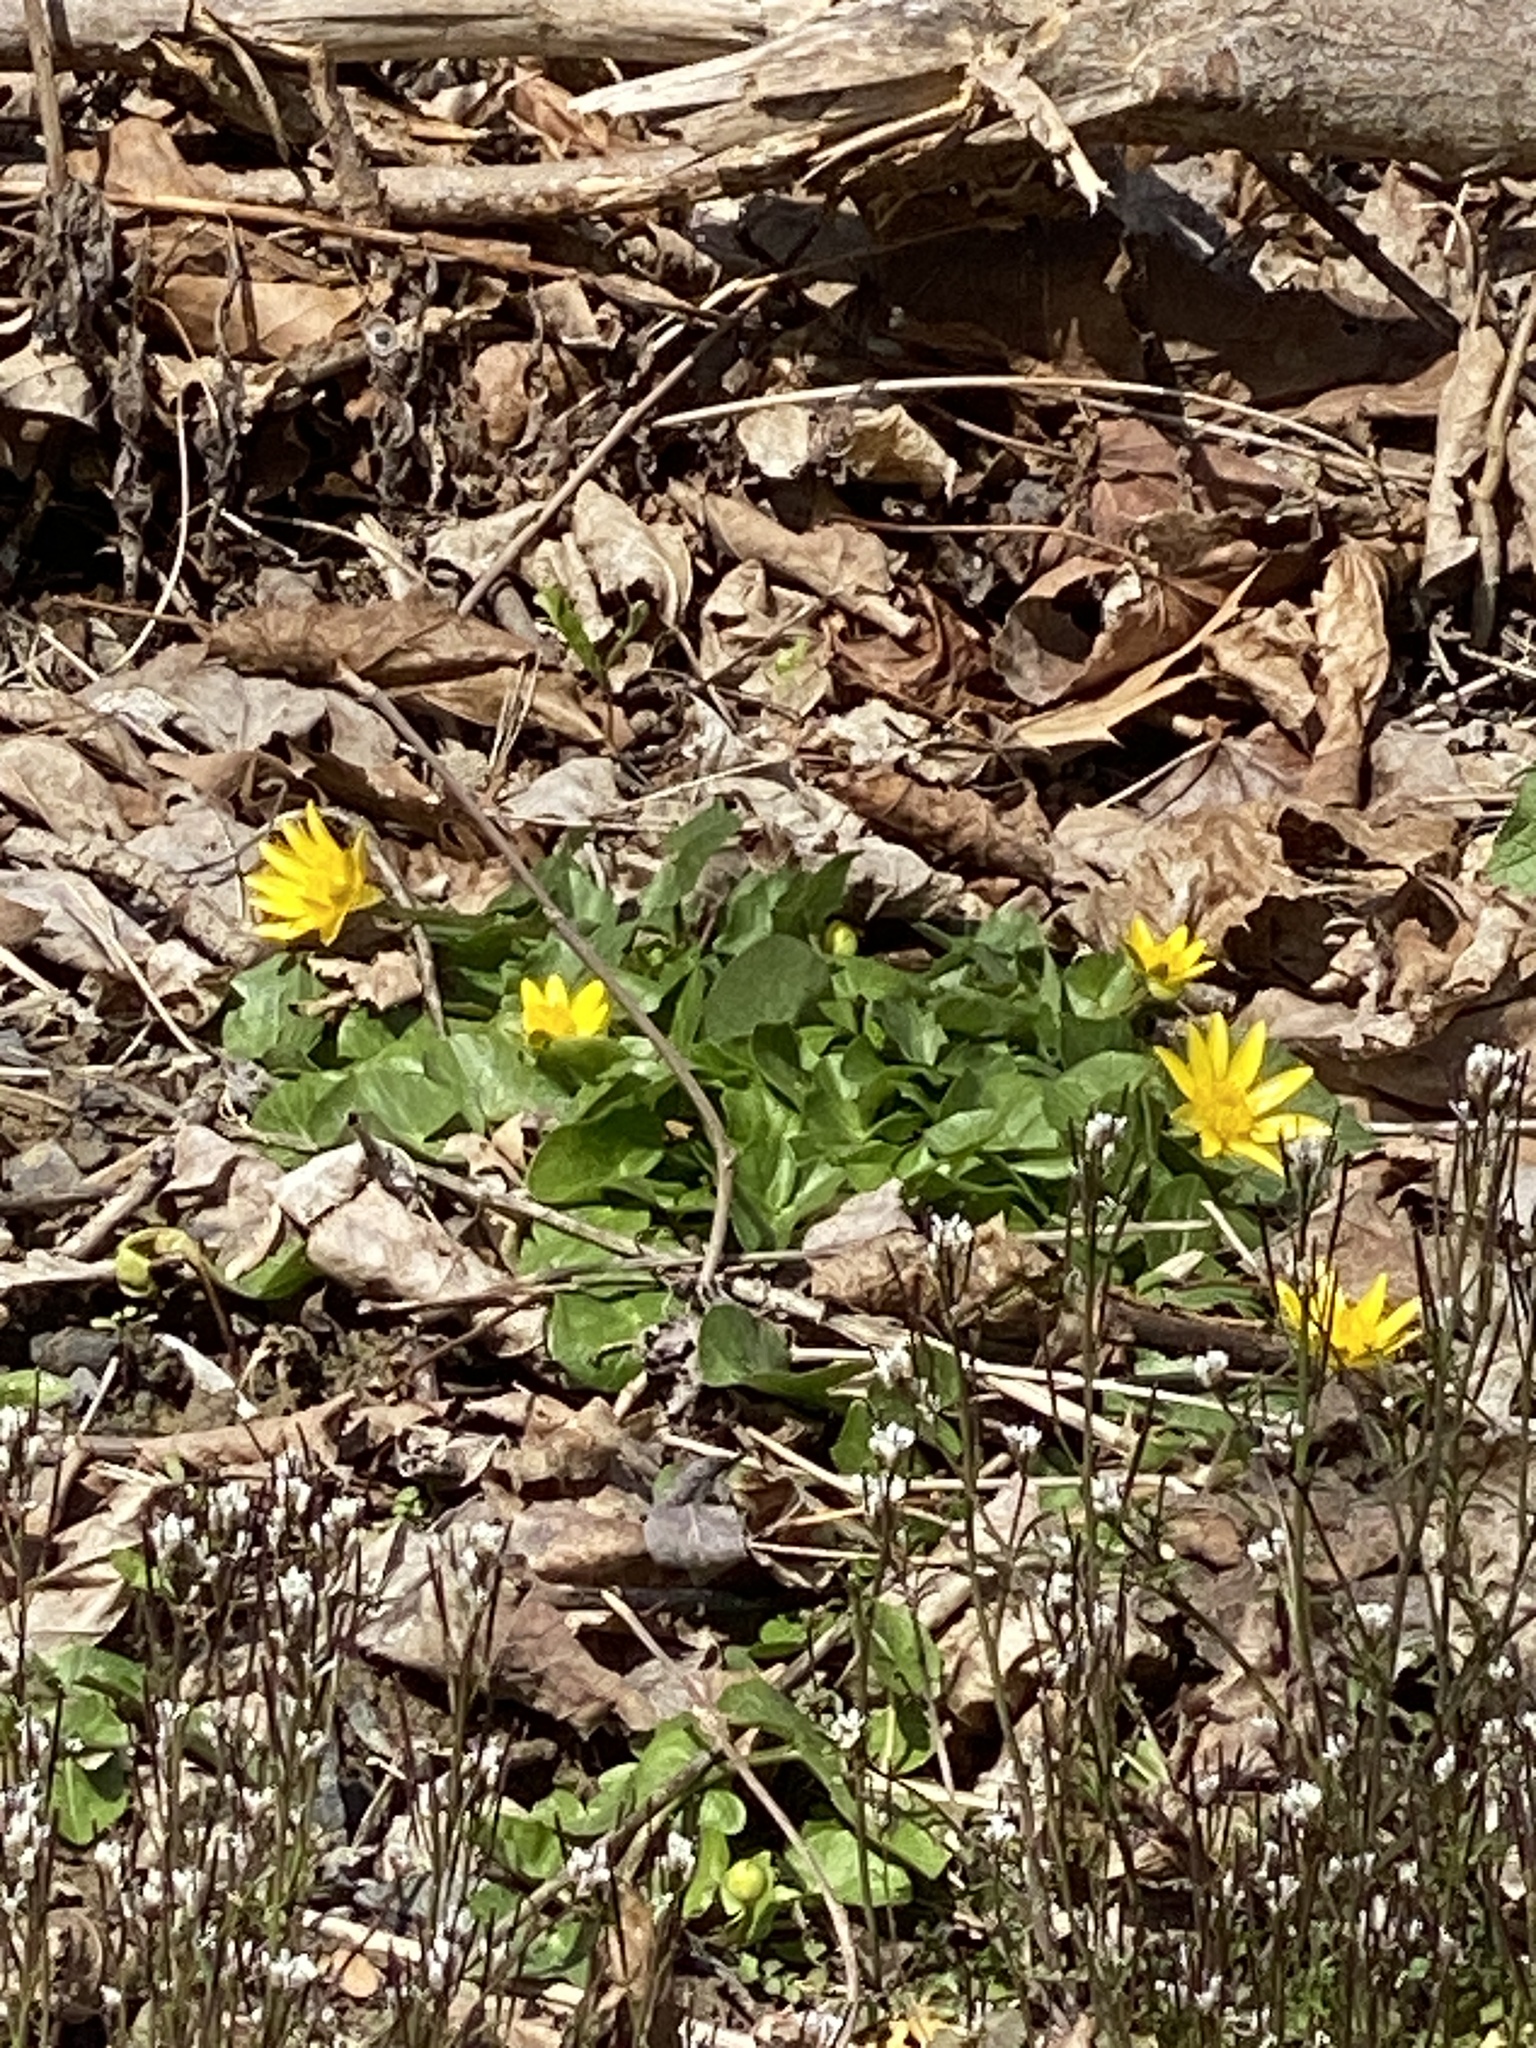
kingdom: Plantae
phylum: Tracheophyta
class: Magnoliopsida
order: Ranunculales
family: Ranunculaceae
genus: Ficaria
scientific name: Ficaria verna
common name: Lesser celandine
